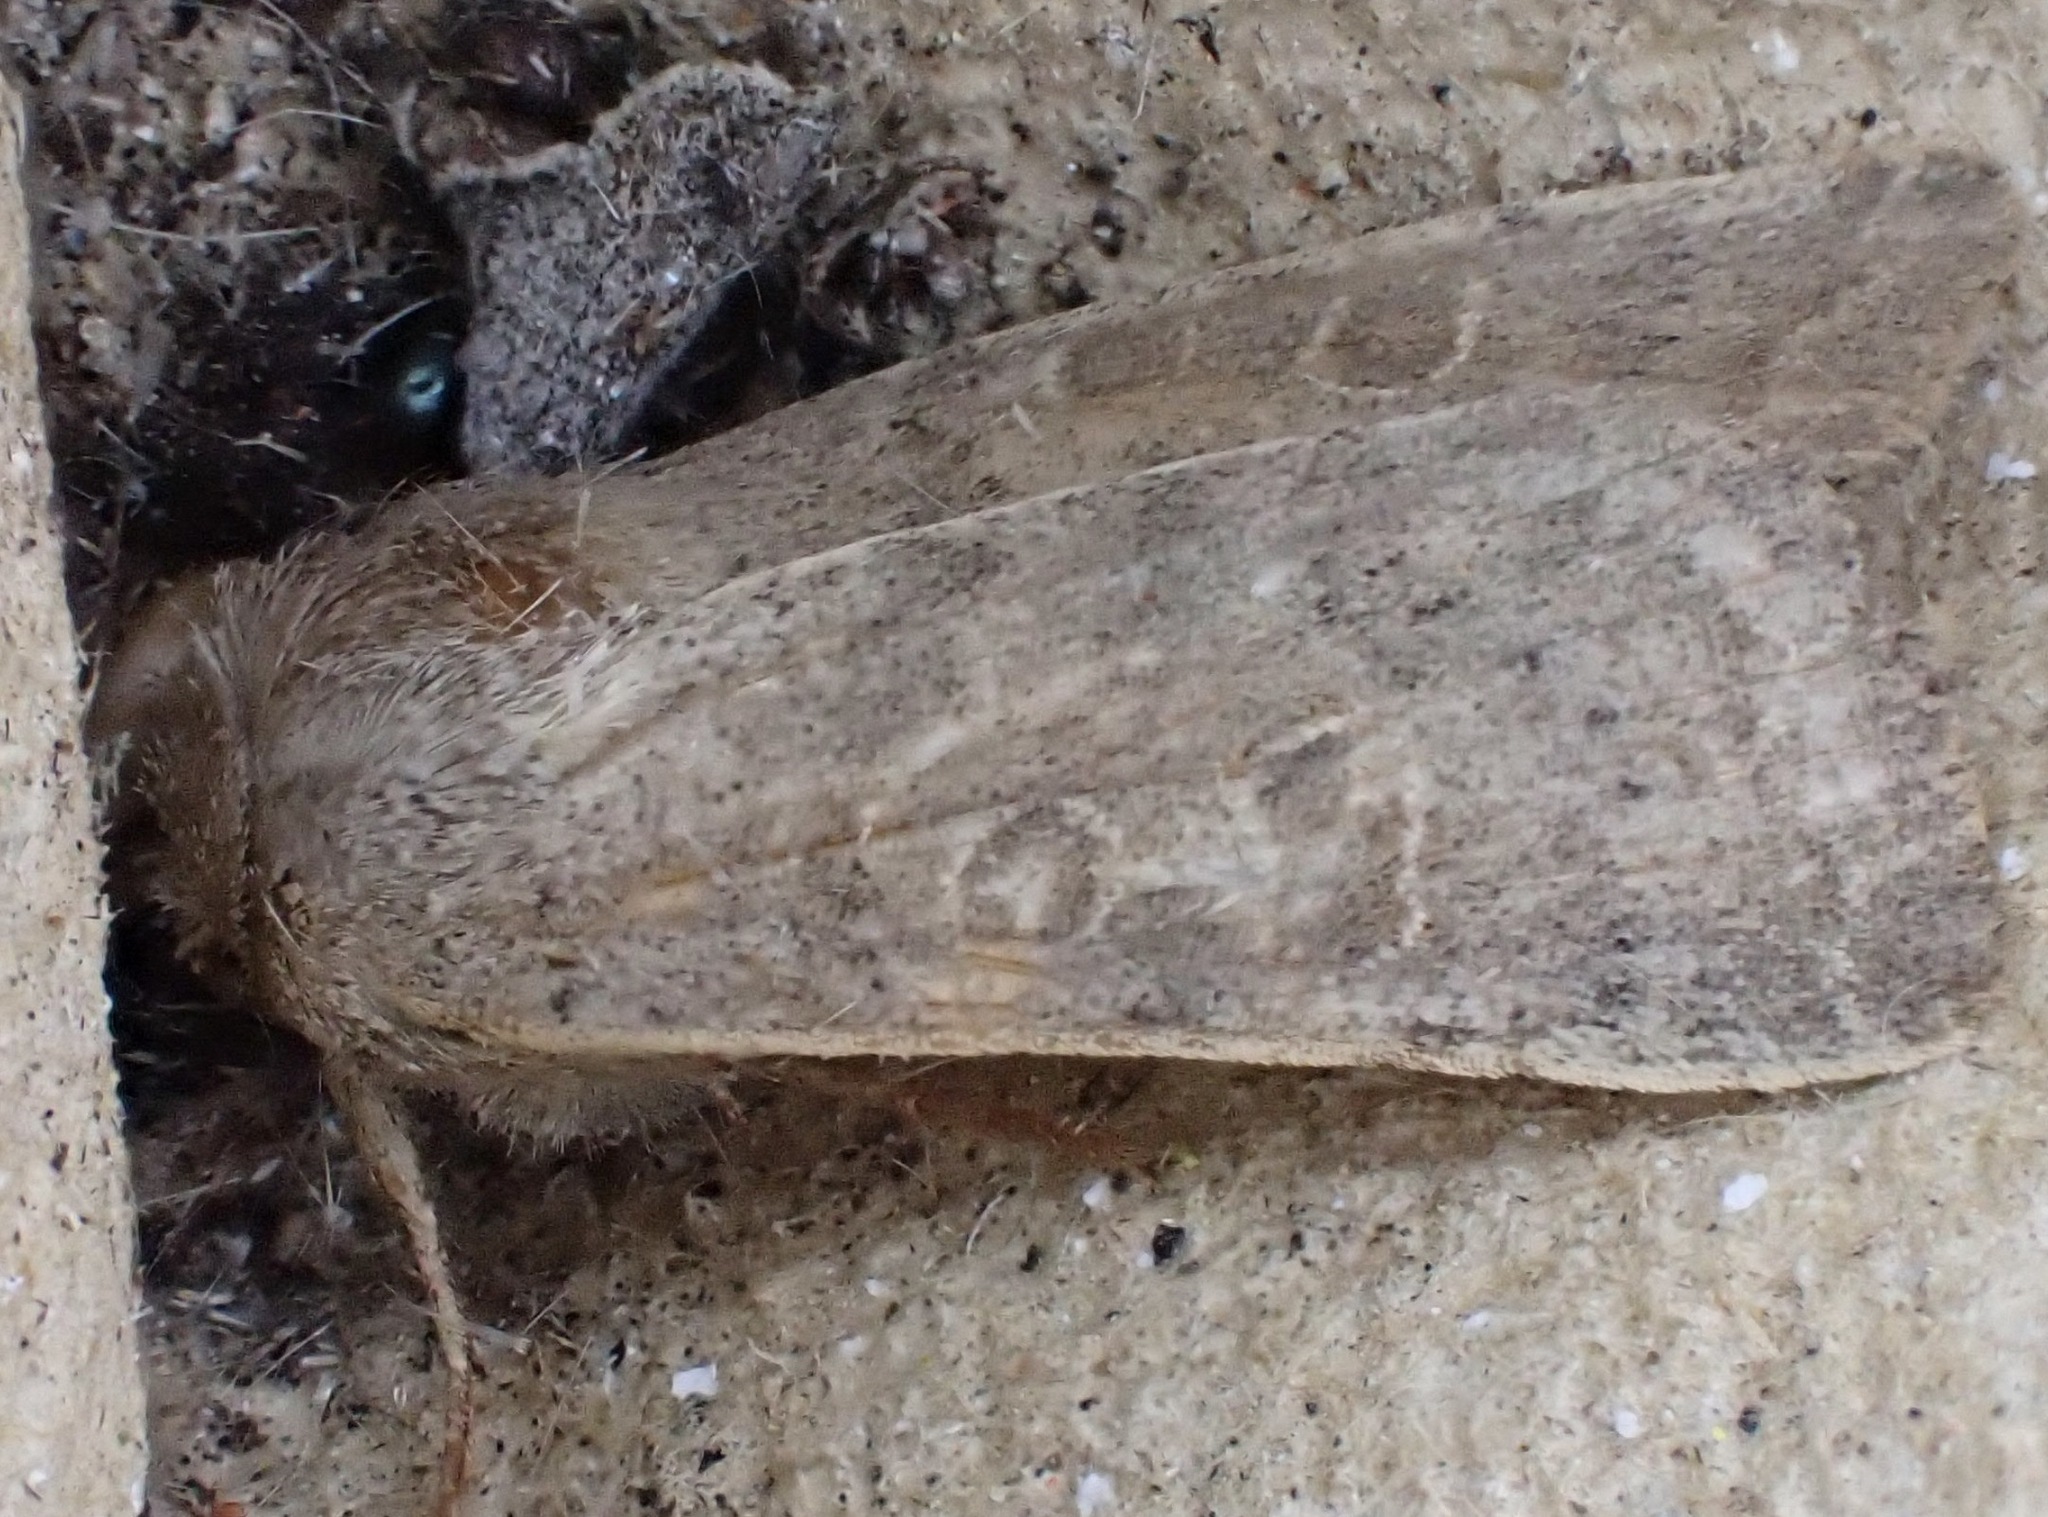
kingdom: Animalia
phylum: Arthropoda
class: Insecta
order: Lepidoptera
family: Noctuidae
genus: Hoplodrina
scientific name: Hoplodrina ambigua
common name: Vine's rustic
